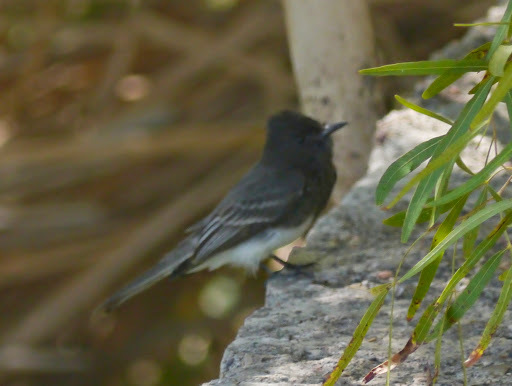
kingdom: Animalia
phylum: Chordata
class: Aves
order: Passeriformes
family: Tyrannidae
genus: Sayornis
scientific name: Sayornis nigricans
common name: Black phoebe
